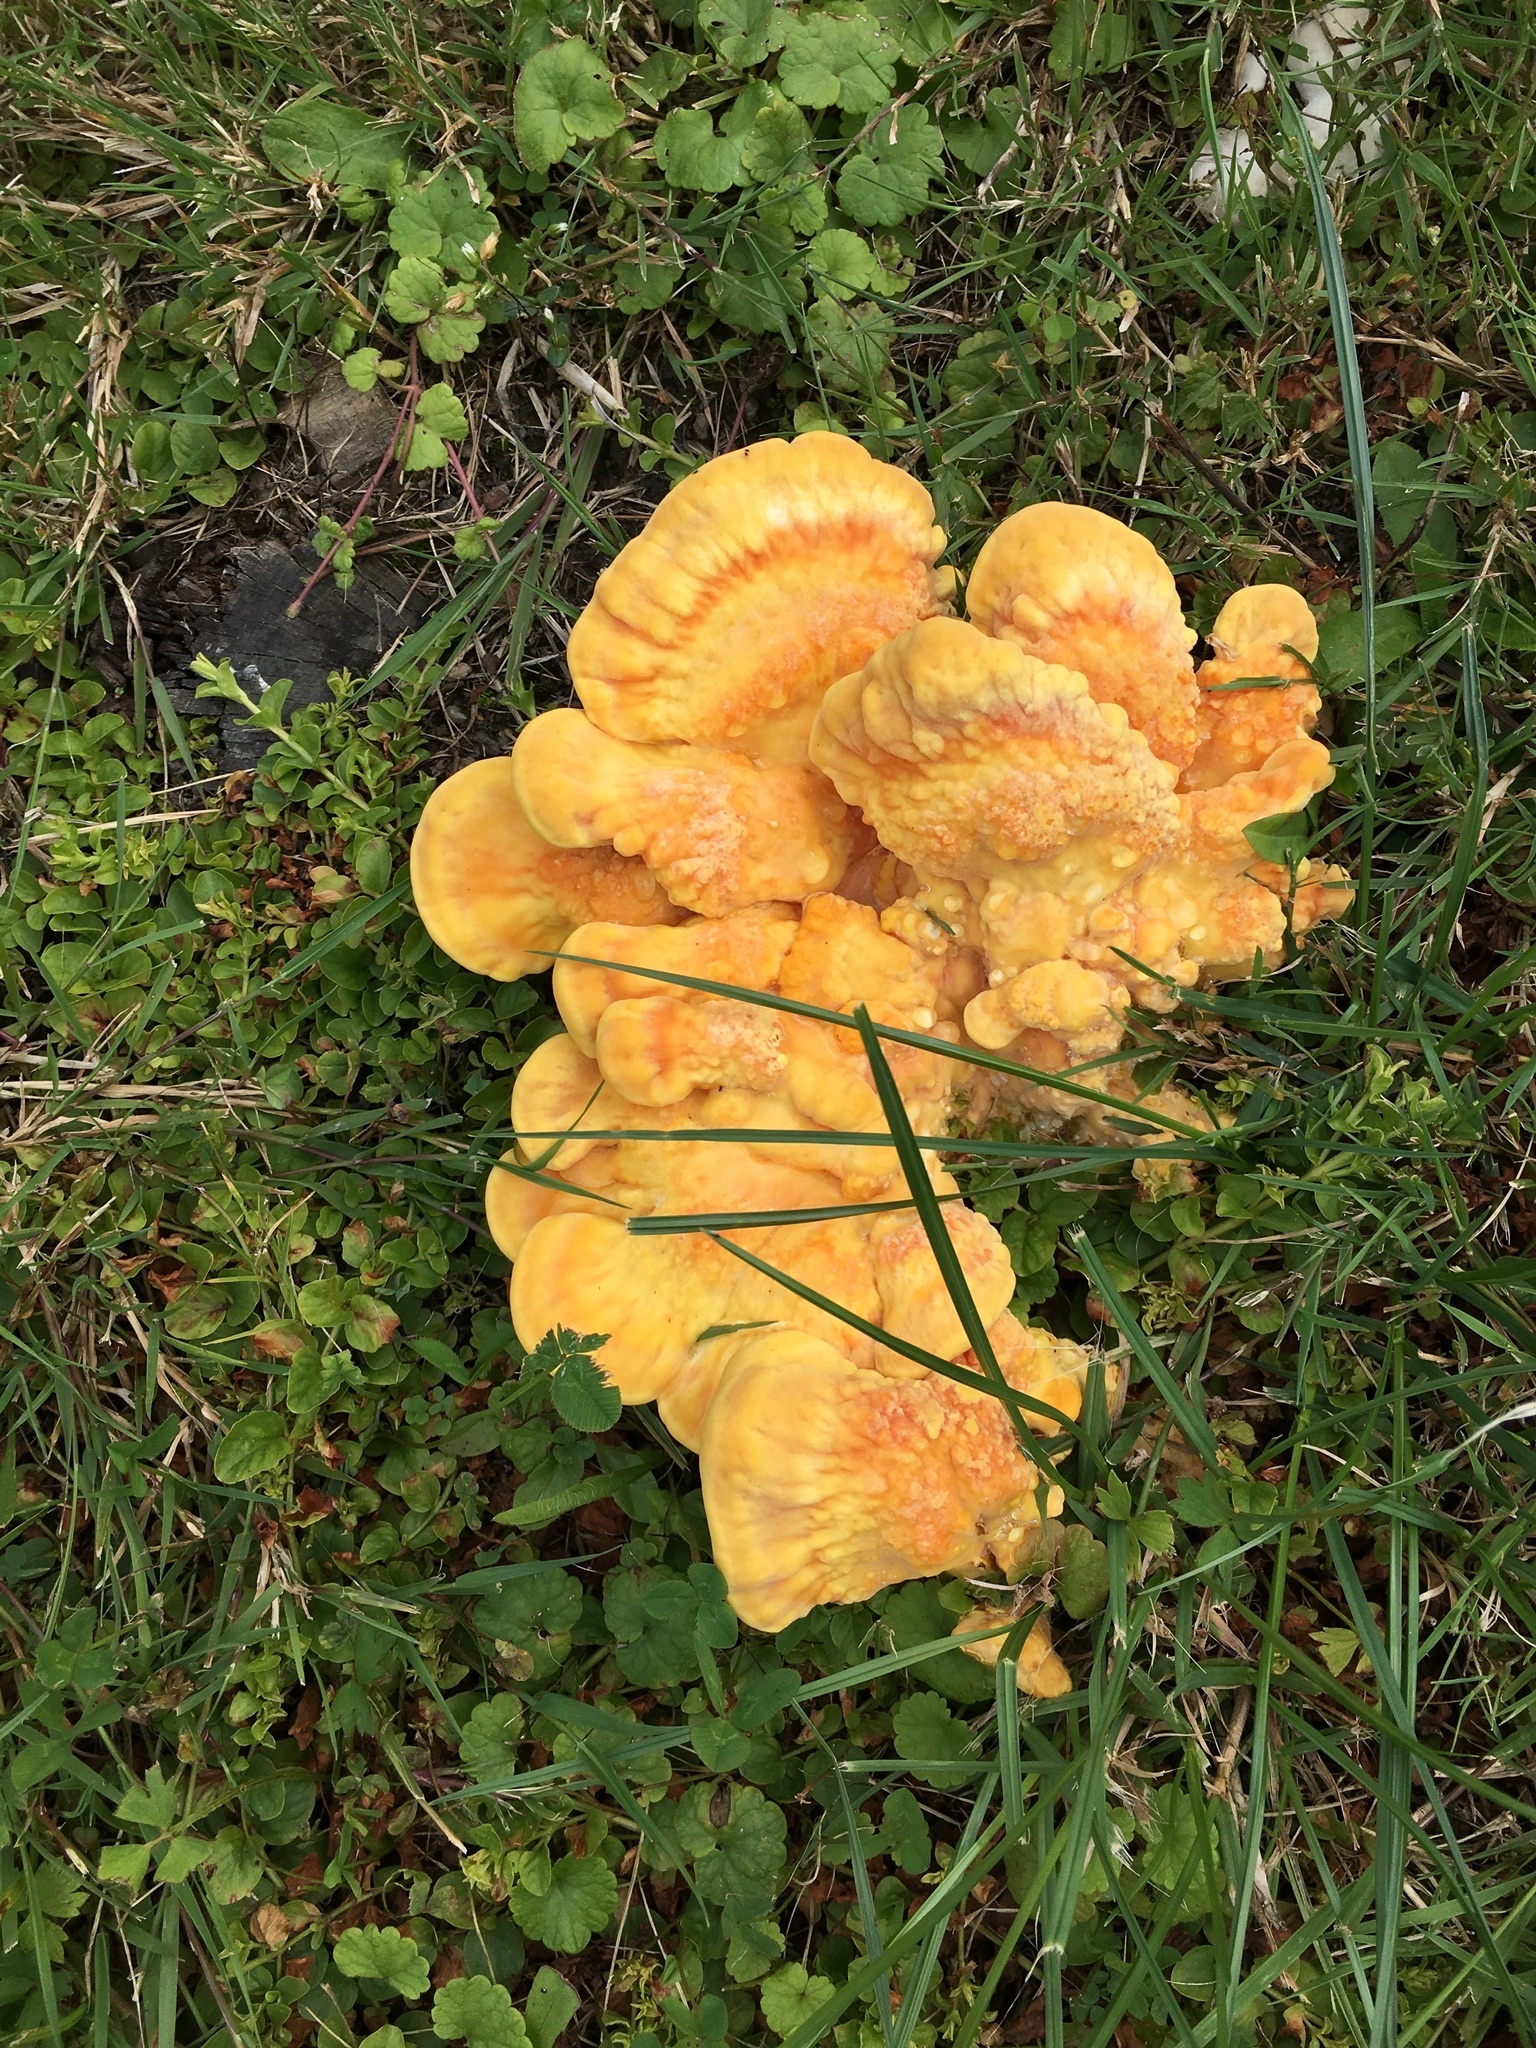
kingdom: Fungi
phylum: Basidiomycota
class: Agaricomycetes
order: Polyporales
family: Laetiporaceae
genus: Laetiporus
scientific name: Laetiporus sulphureus
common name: Chicken of the woods
